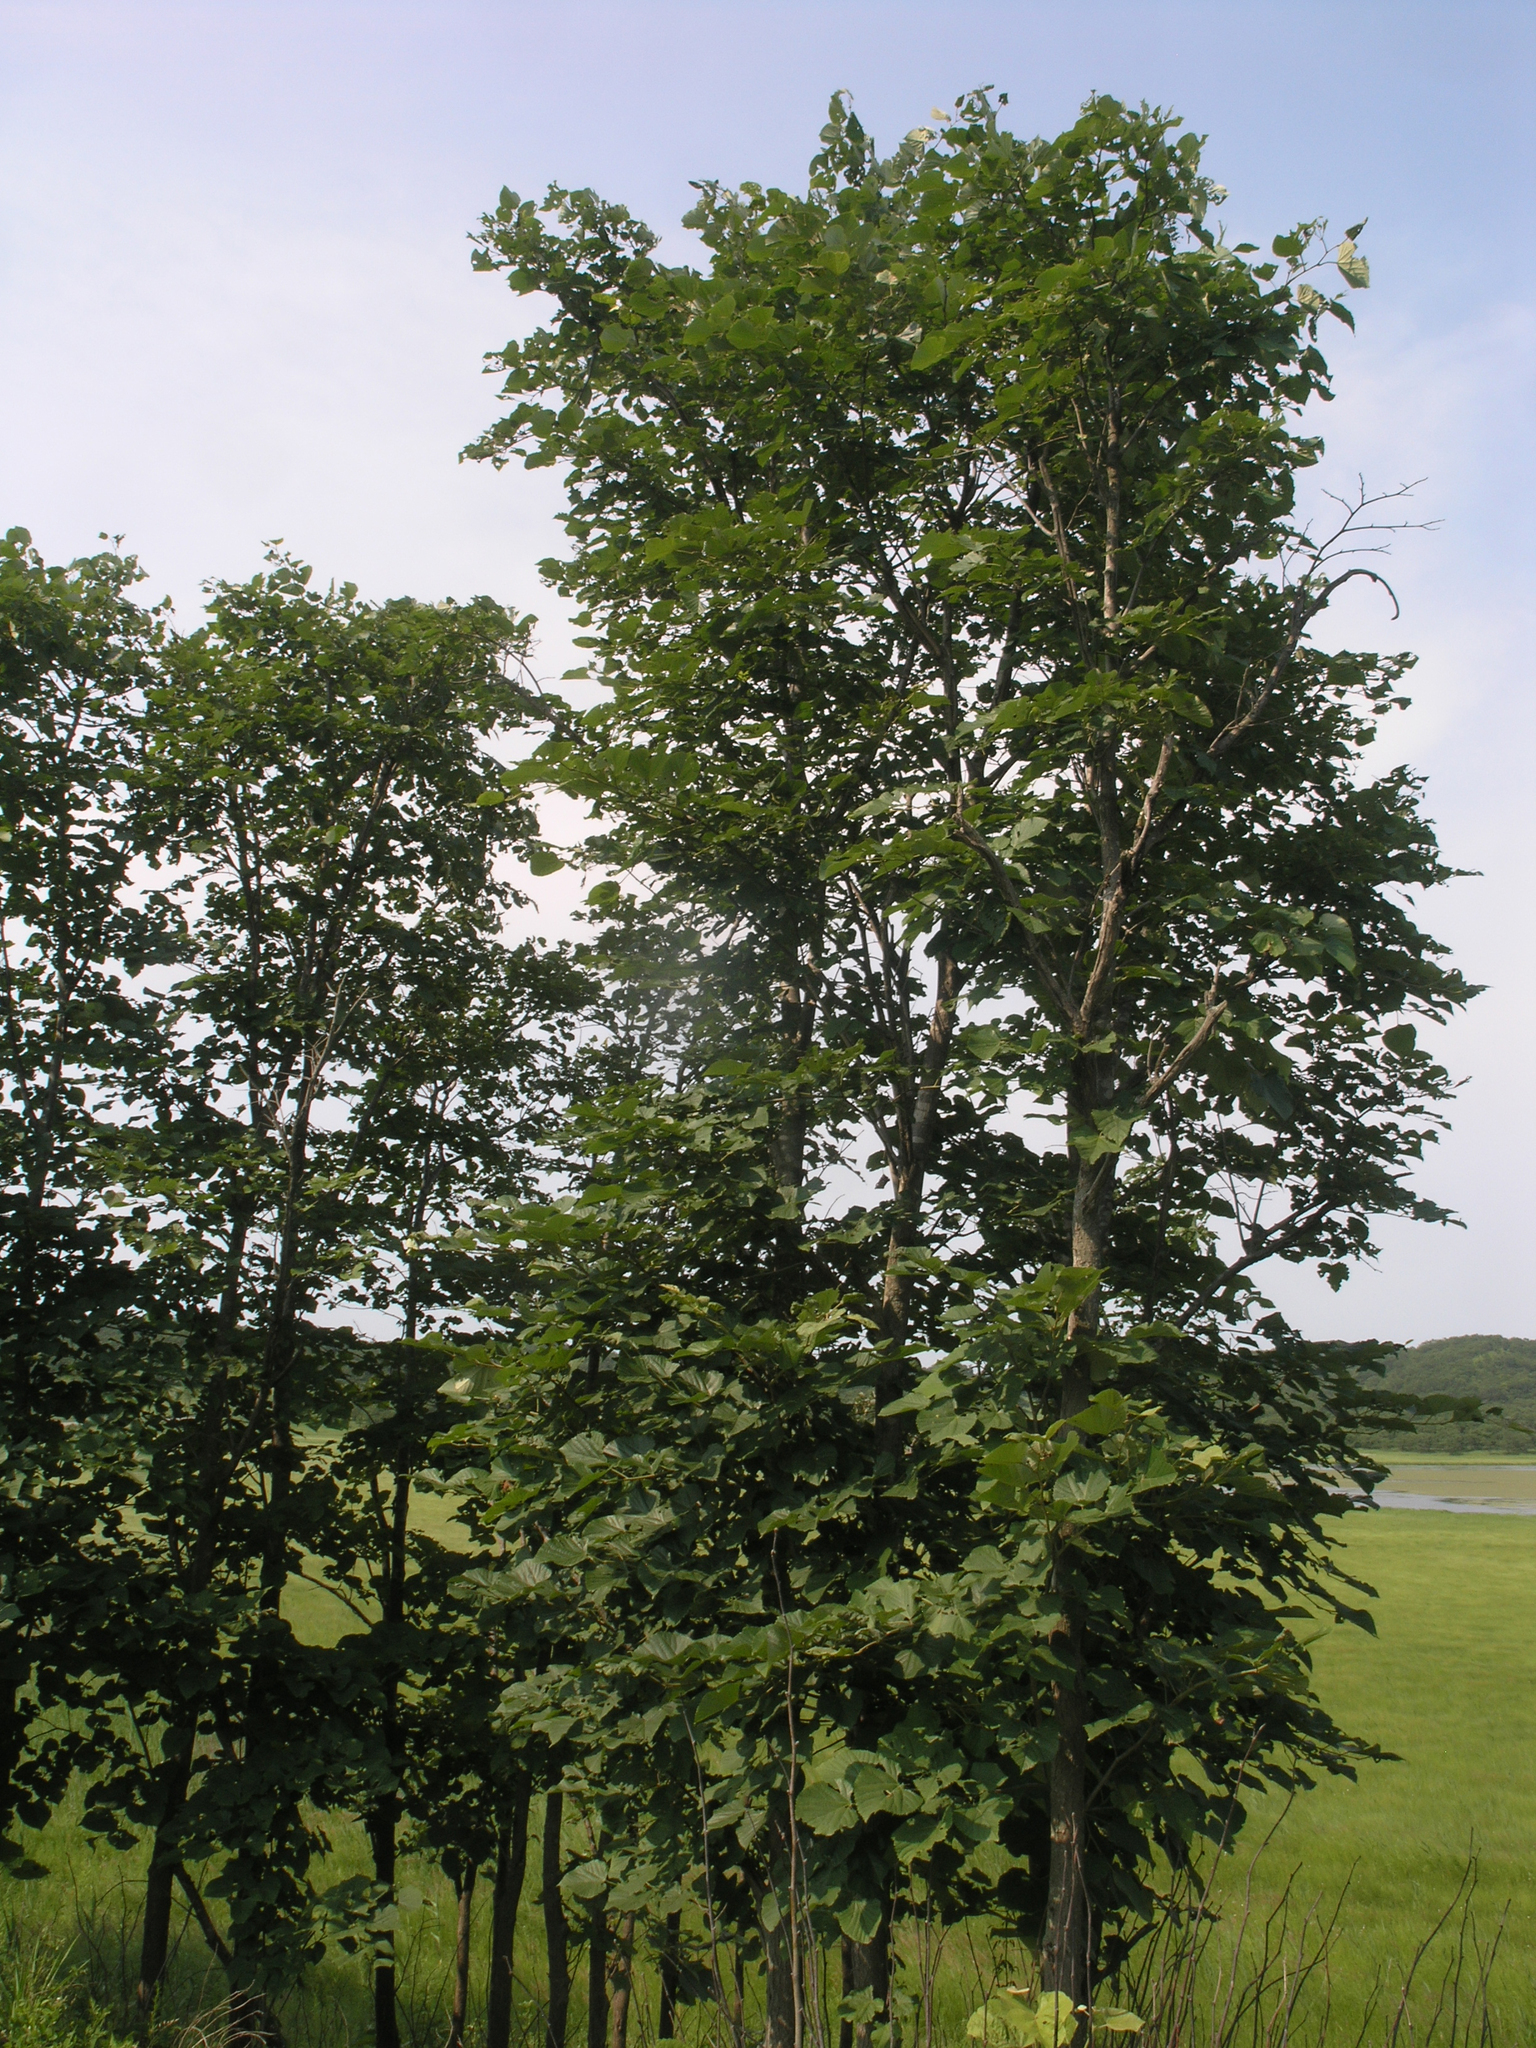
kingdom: Plantae
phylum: Tracheophyta
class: Magnoliopsida
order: Malvales
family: Malvaceae
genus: Tilia
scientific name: Tilia mandshurica
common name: Manchurian linden
